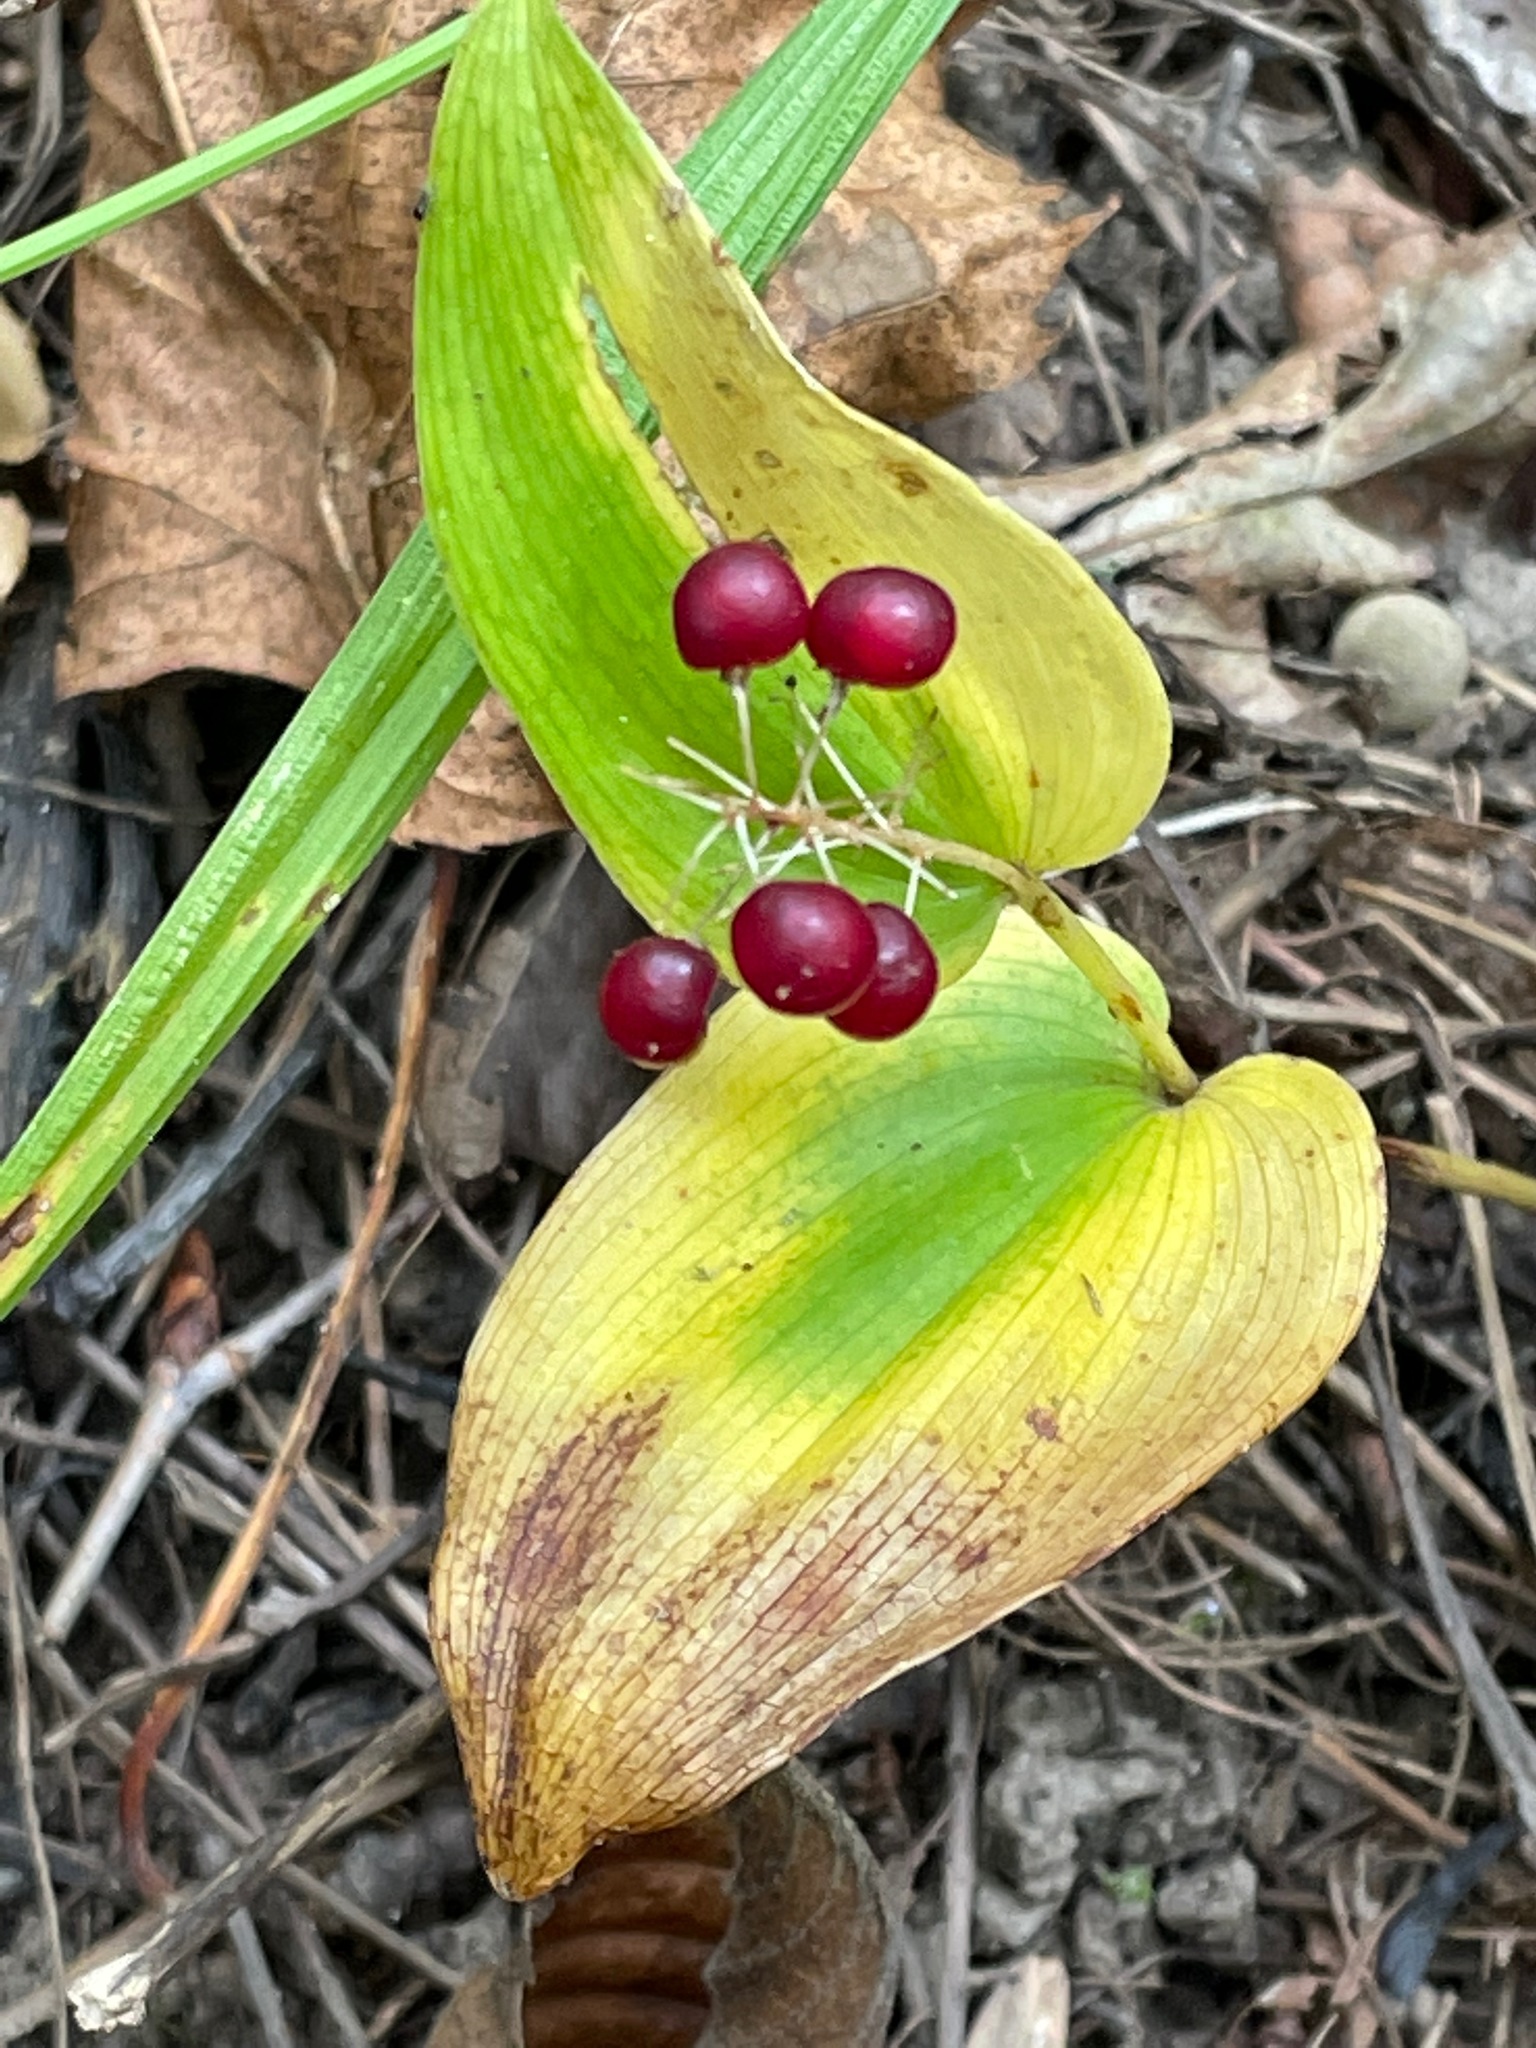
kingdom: Plantae
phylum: Tracheophyta
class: Liliopsida
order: Asparagales
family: Asparagaceae
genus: Maianthemum
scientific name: Maianthemum canadense
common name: False lily-of-the-valley
